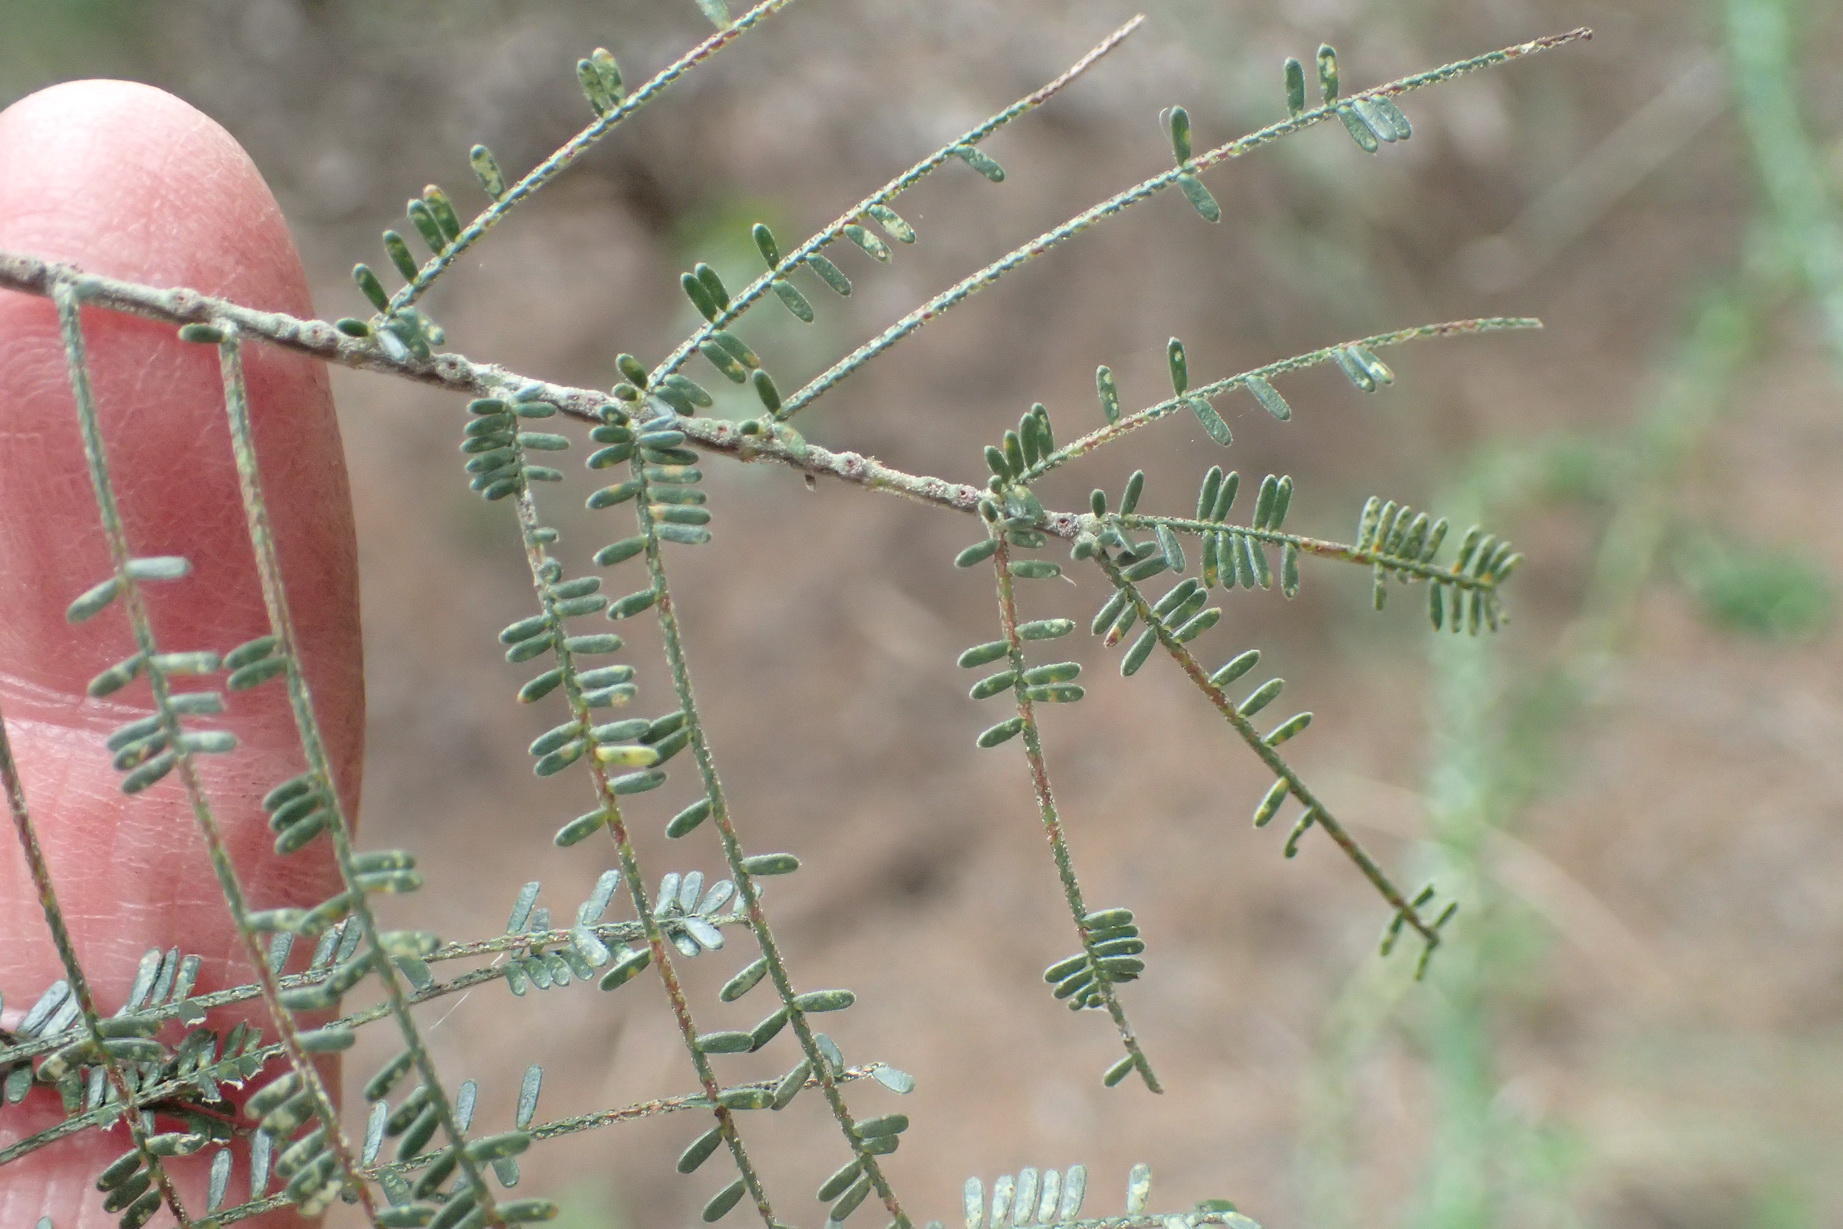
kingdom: Plantae
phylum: Tracheophyta
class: Magnoliopsida
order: Fabales
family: Fabaceae
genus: Acacia
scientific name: Acacia mearnsii
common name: Black wattle
